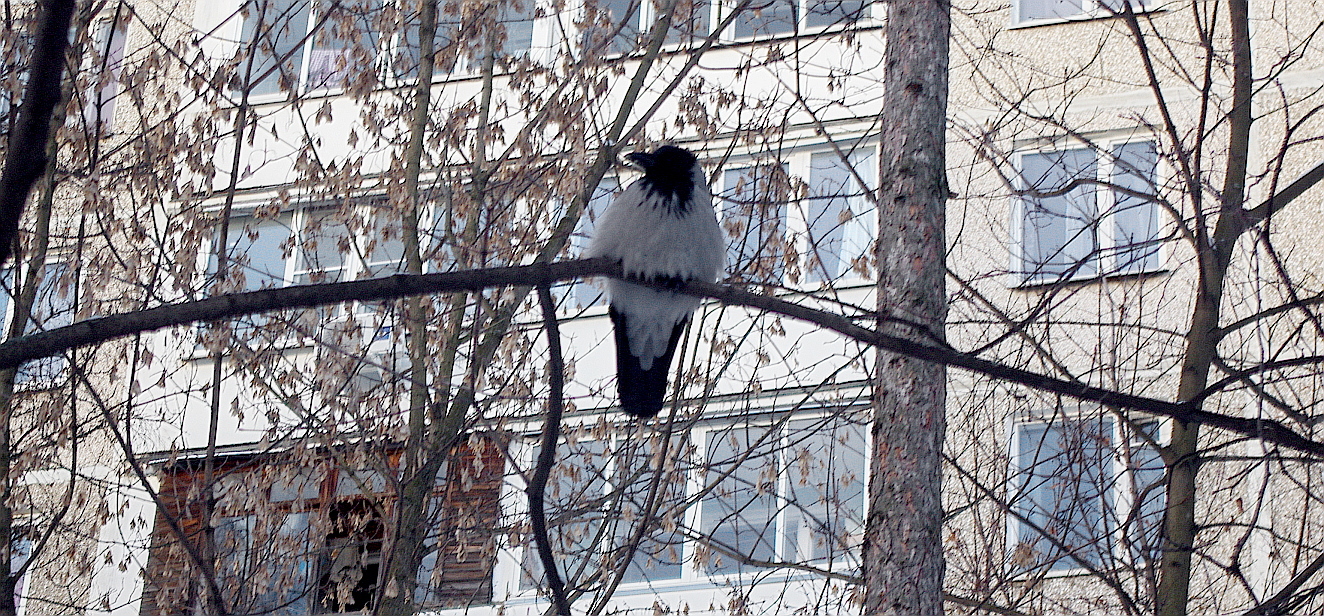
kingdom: Animalia
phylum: Chordata
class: Aves
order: Passeriformes
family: Corvidae
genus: Corvus
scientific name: Corvus cornix
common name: Hooded crow
